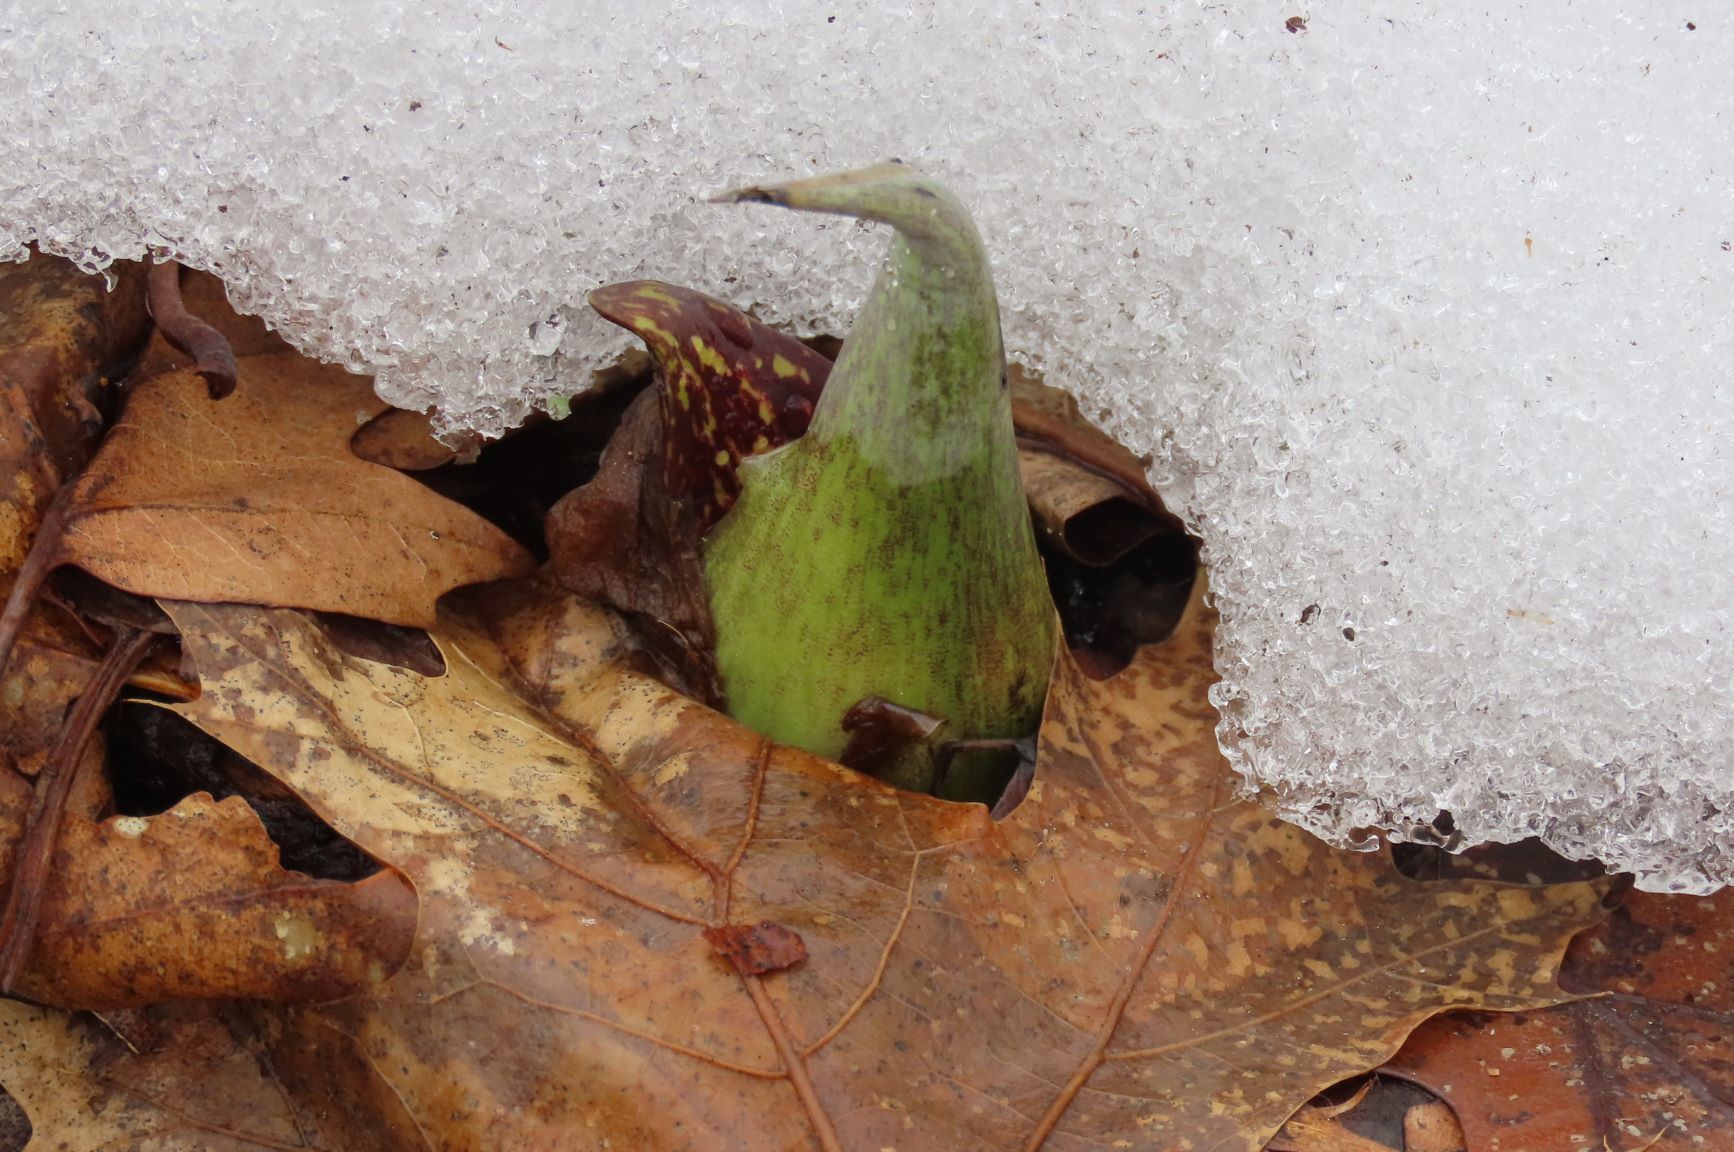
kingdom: Plantae
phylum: Tracheophyta
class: Liliopsida
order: Alismatales
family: Araceae
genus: Symplocarpus
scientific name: Symplocarpus foetidus
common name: Eastern skunk cabbage
